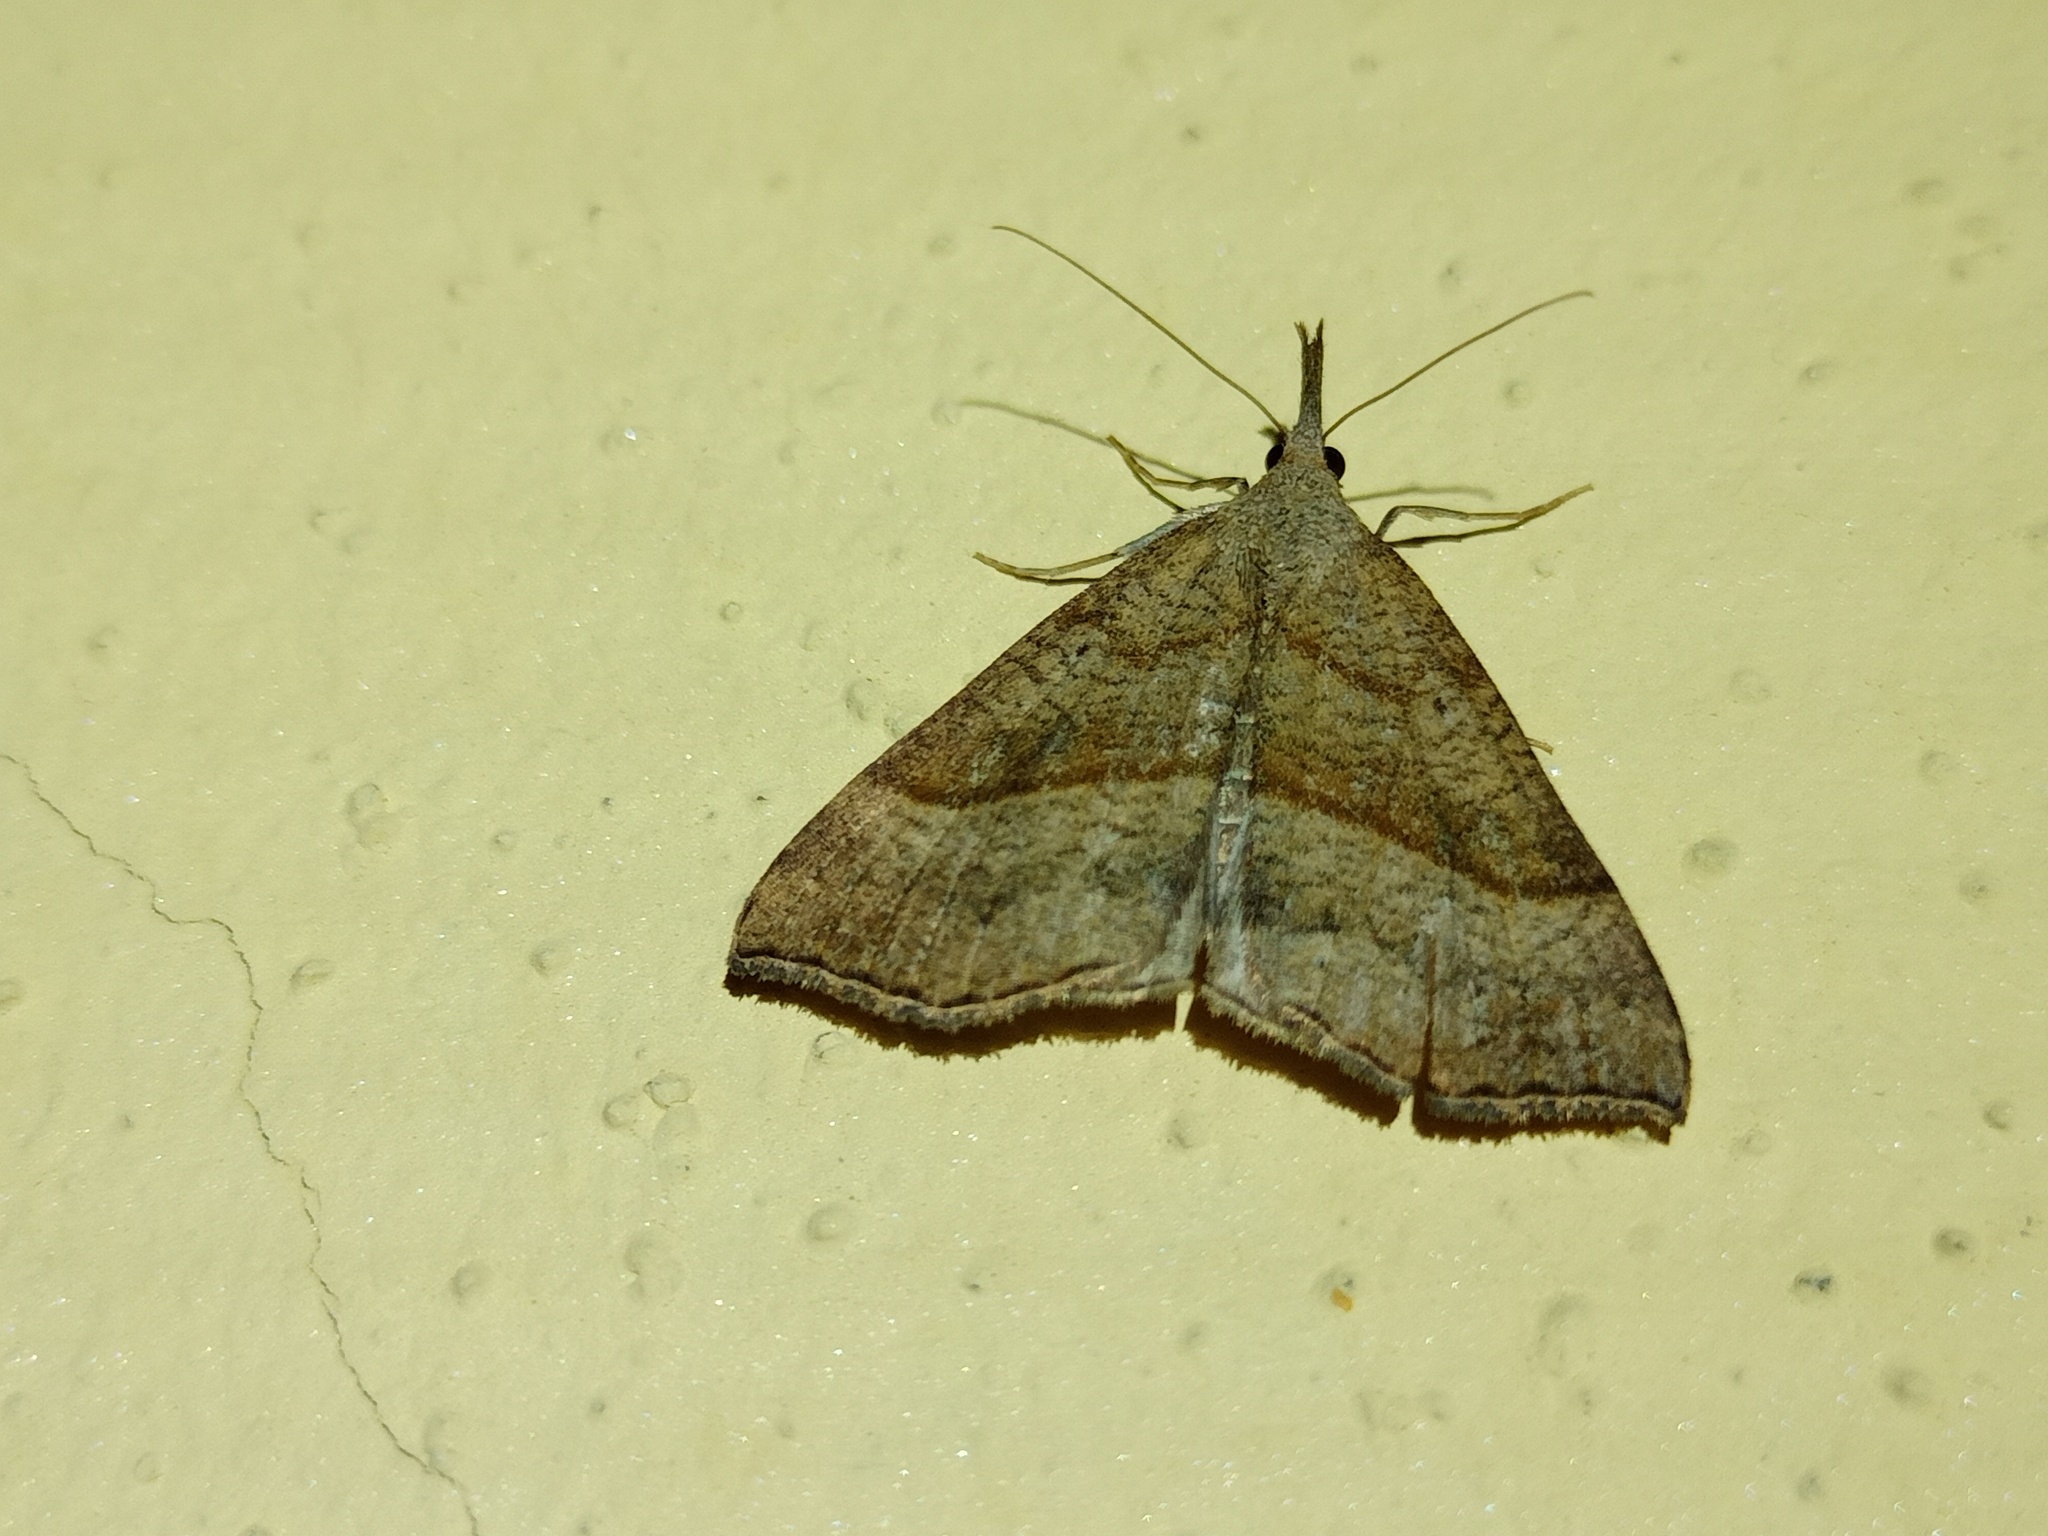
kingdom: Animalia
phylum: Arthropoda
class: Insecta
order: Lepidoptera
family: Erebidae
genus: Hypena
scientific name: Hypena proboscidalis
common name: Snout
